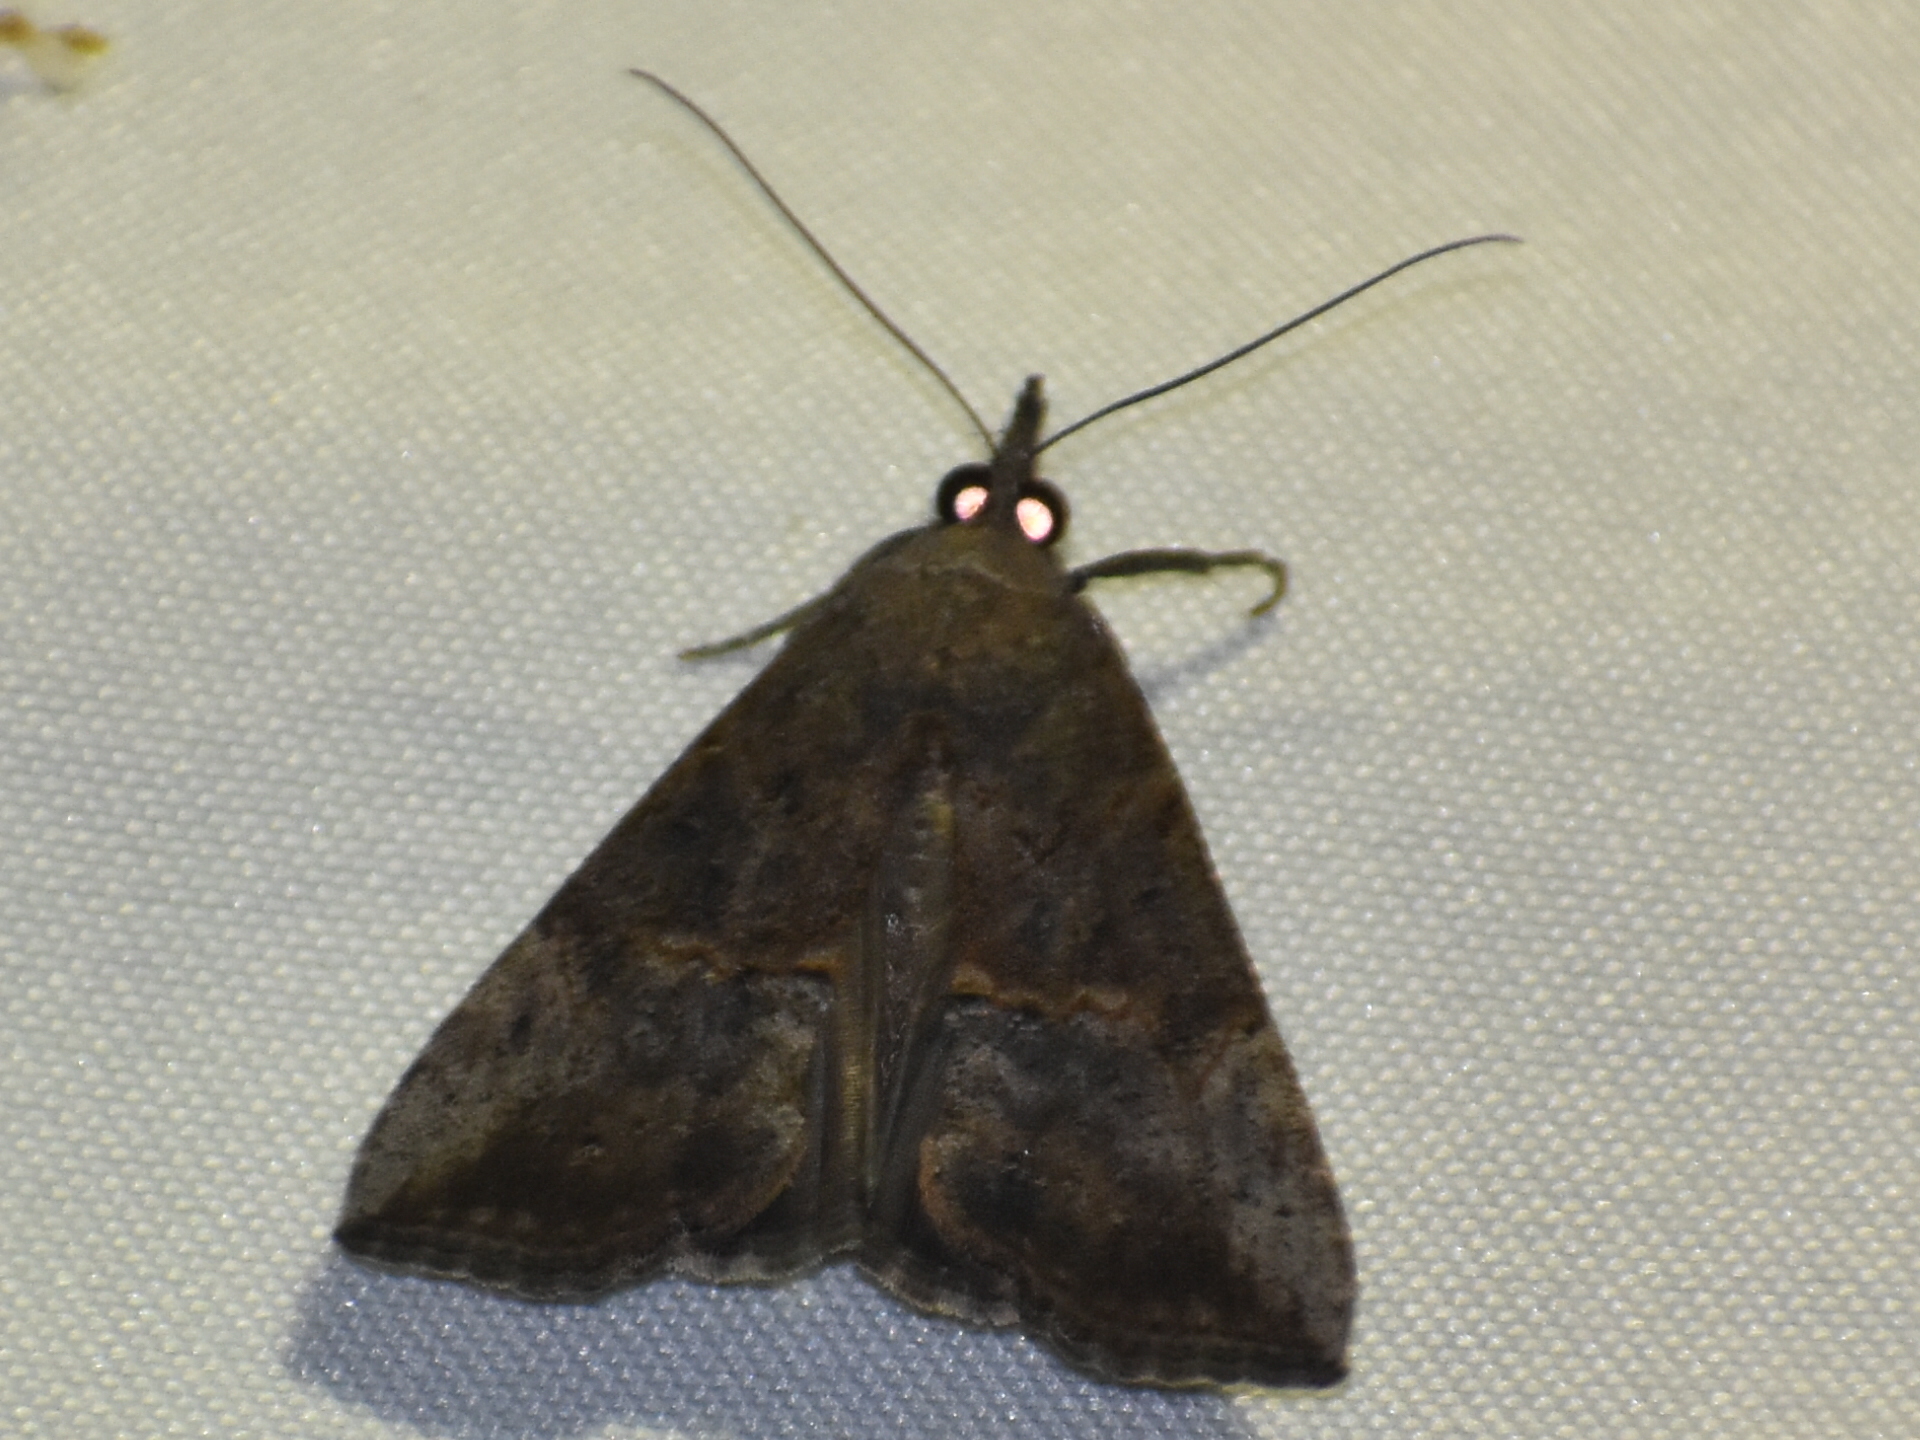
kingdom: Animalia
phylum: Arthropoda
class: Insecta
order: Lepidoptera
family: Erebidae
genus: Hypena
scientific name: Hypena scabra
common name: Green cloverworm
